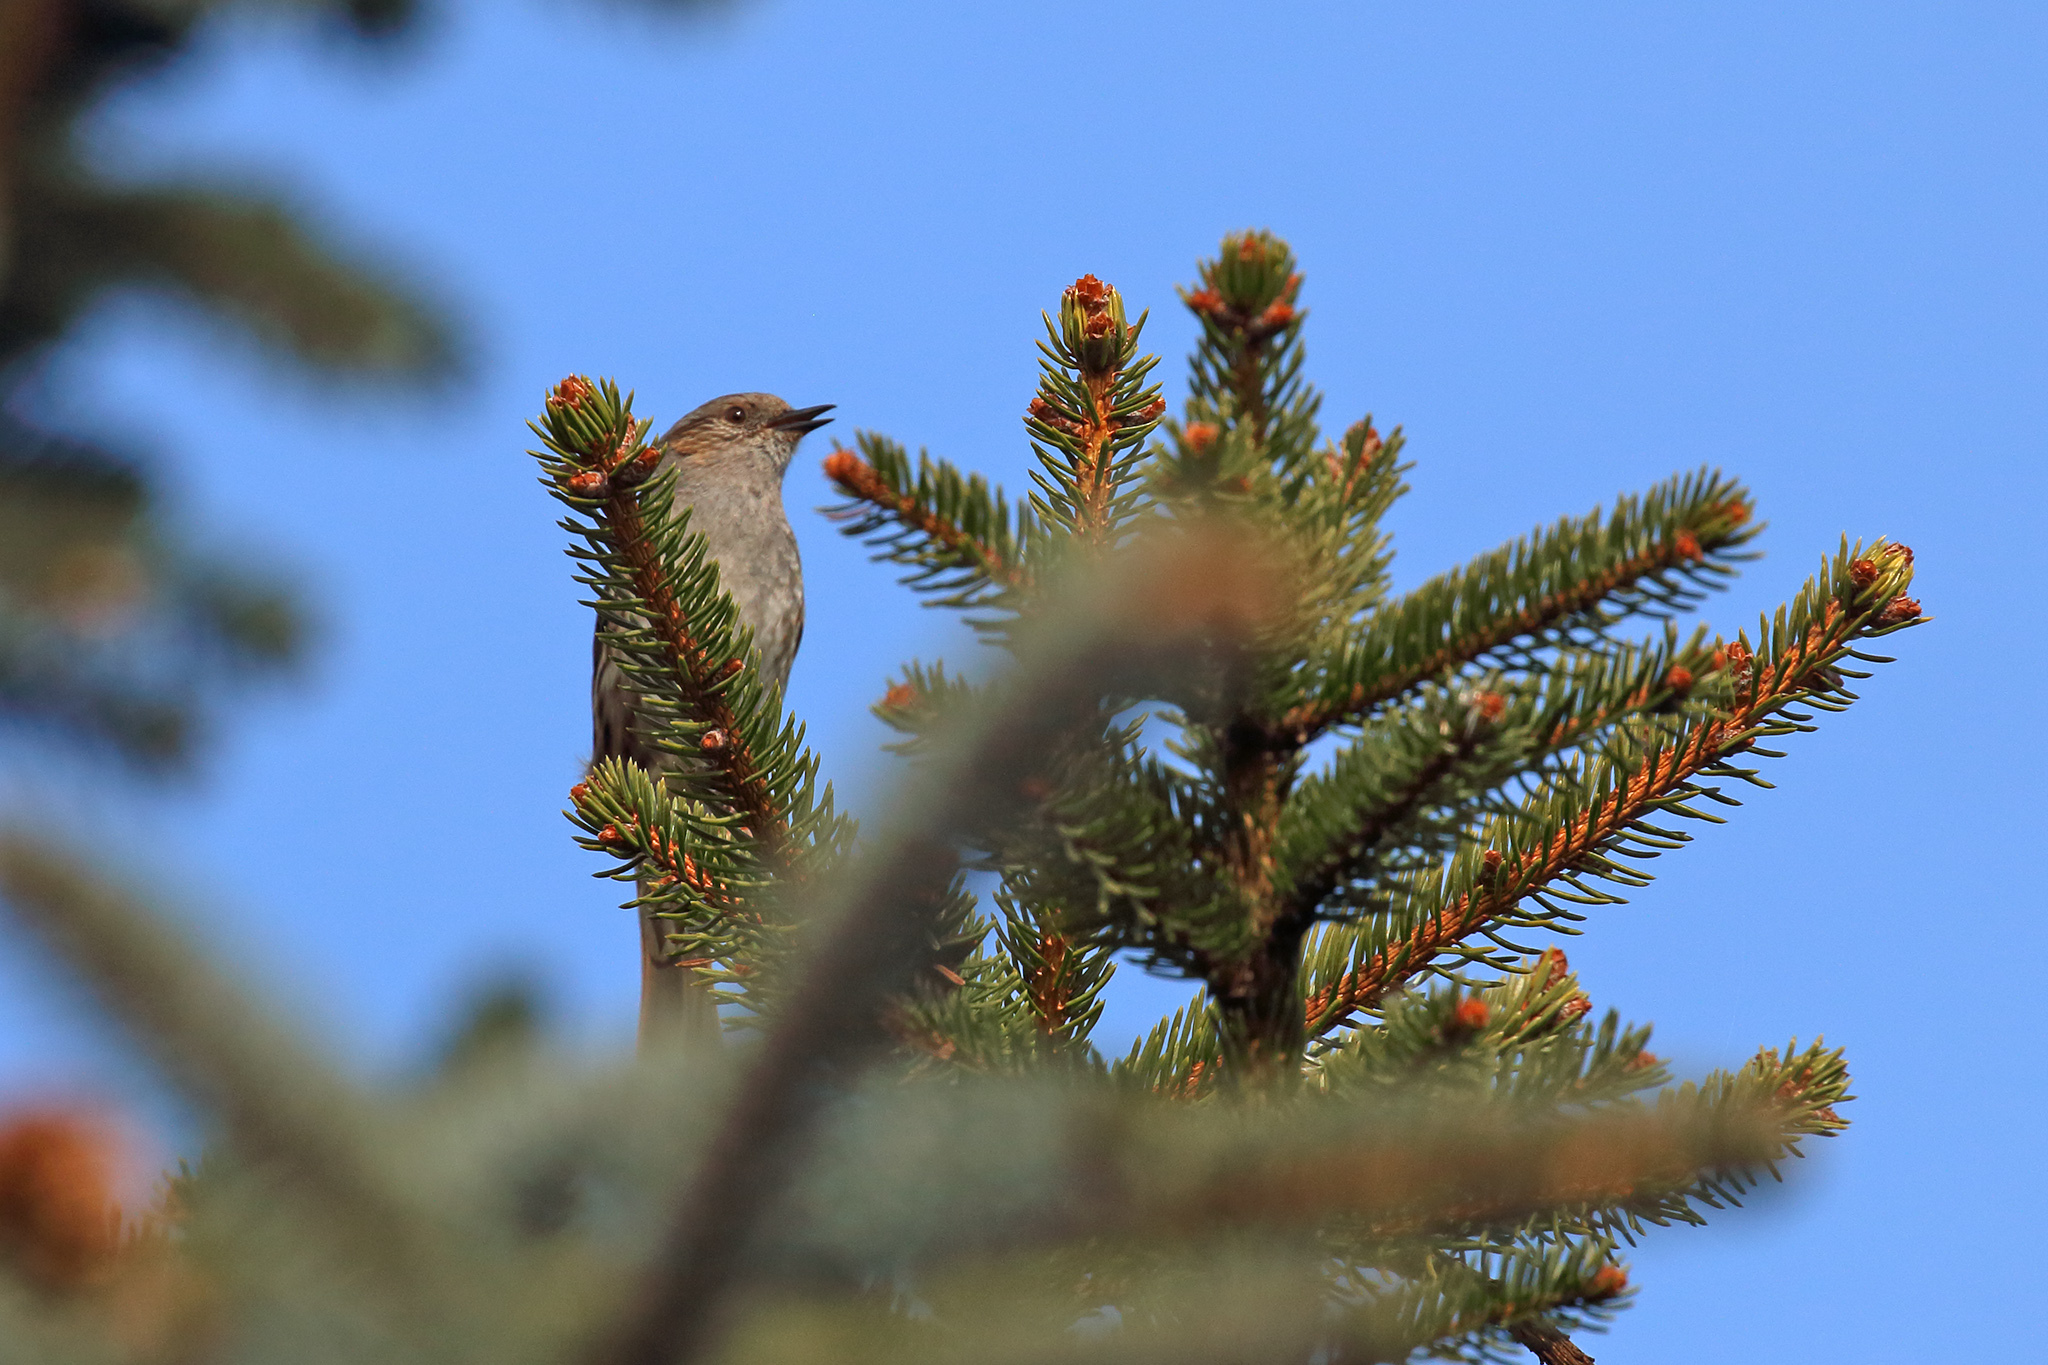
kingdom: Animalia
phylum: Chordata
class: Aves
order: Passeriformes
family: Prunellidae
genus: Prunella
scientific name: Prunella modularis
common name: Dunnock
